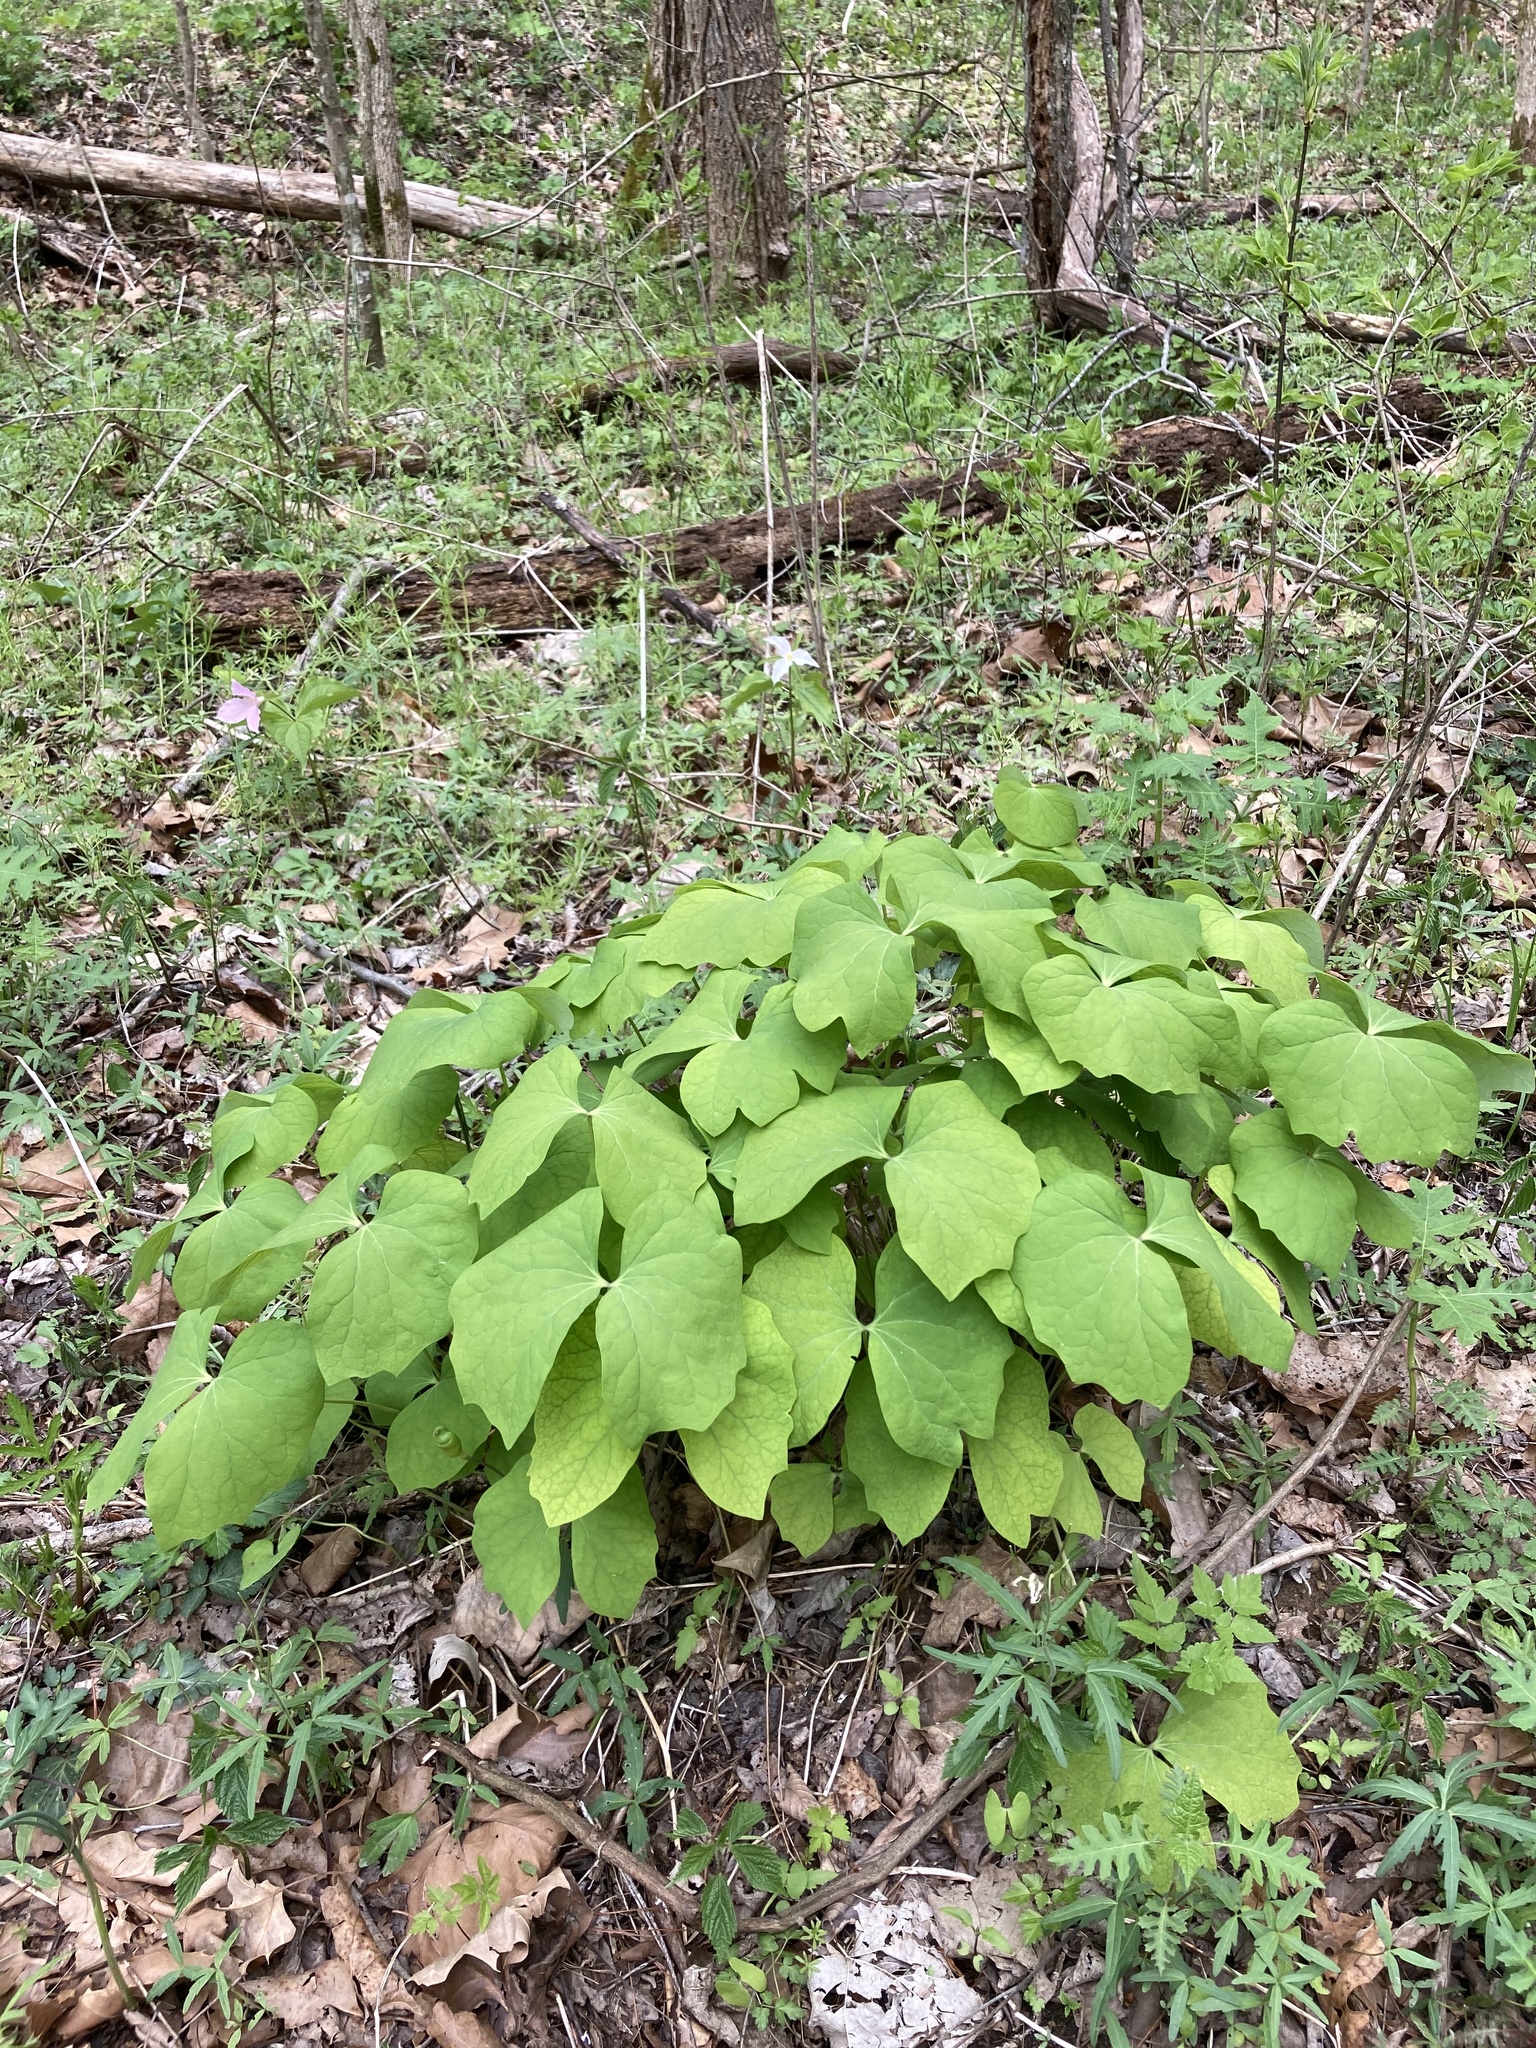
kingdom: Plantae
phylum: Tracheophyta
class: Magnoliopsida
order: Ranunculales
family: Berberidaceae
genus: Jeffersonia
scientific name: Jeffersonia diphylla
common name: Rheumatism-root
